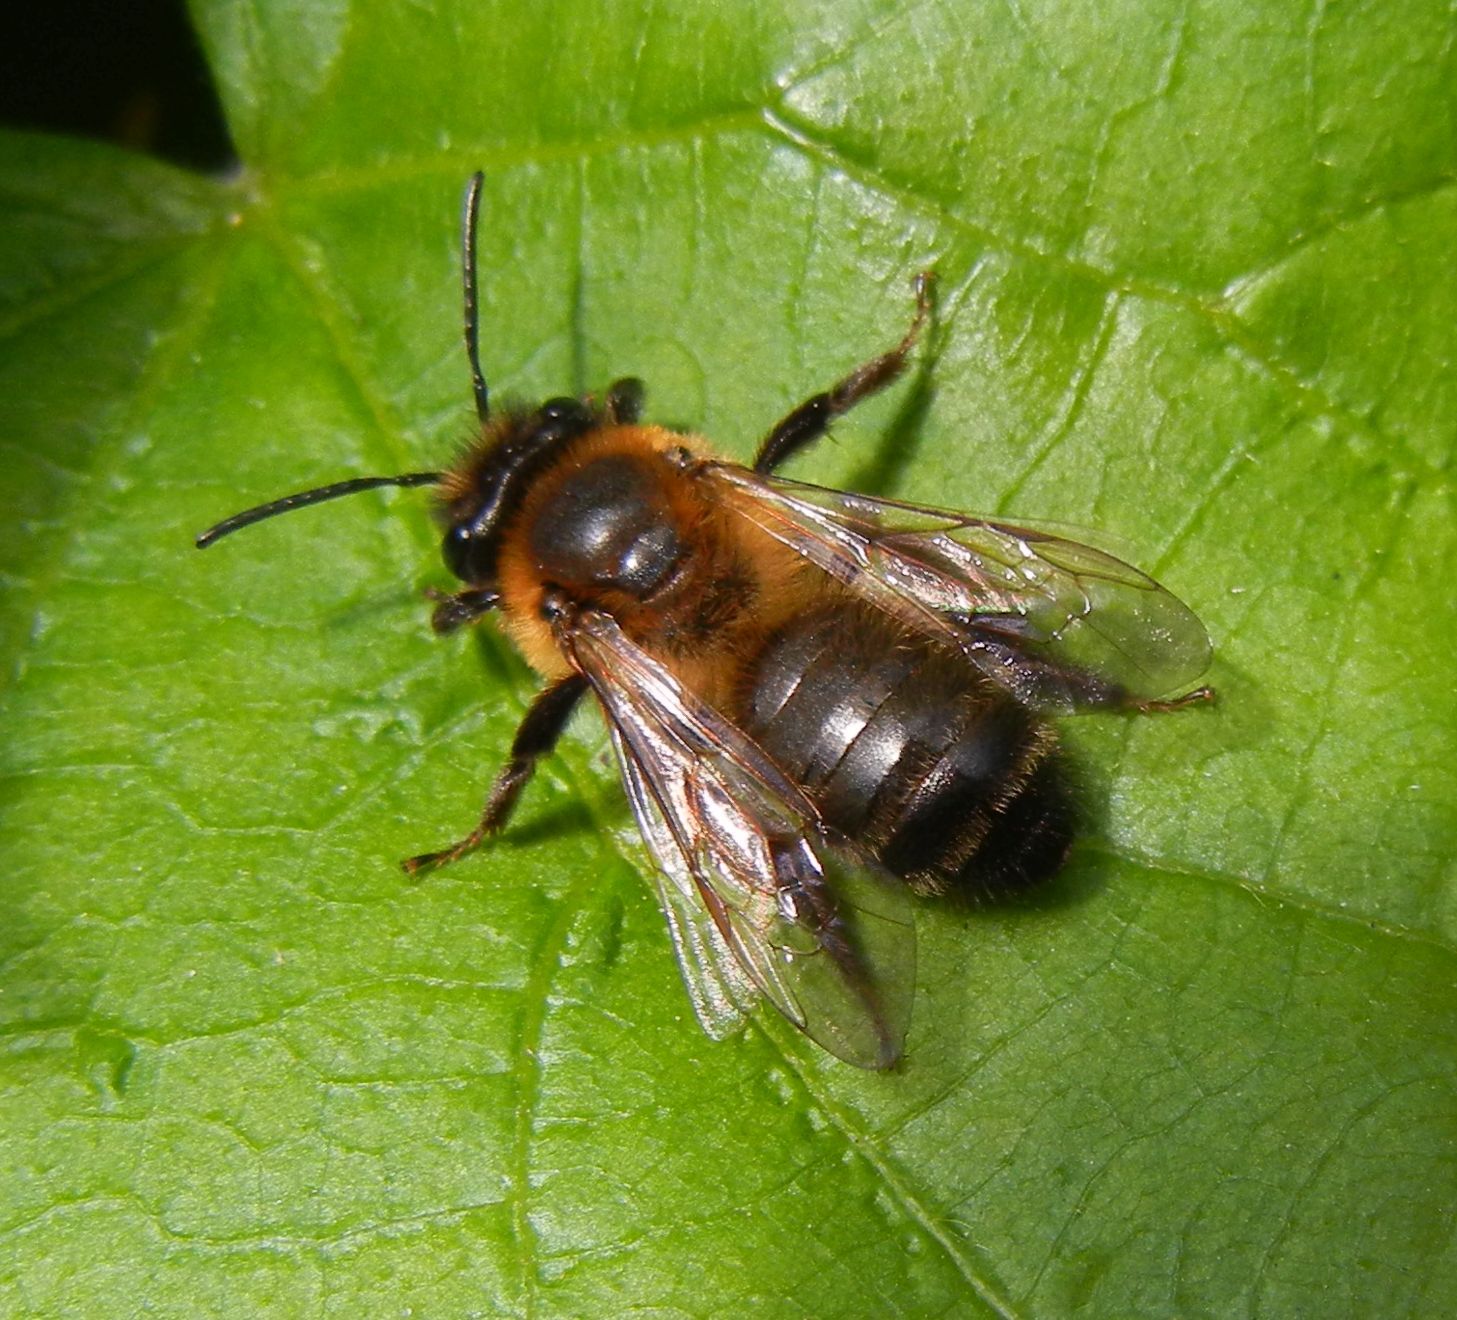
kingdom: Animalia
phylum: Arthropoda
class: Insecta
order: Hymenoptera
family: Andrenidae
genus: Andrena
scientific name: Andrena carantonica
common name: Chocolate mining bee
